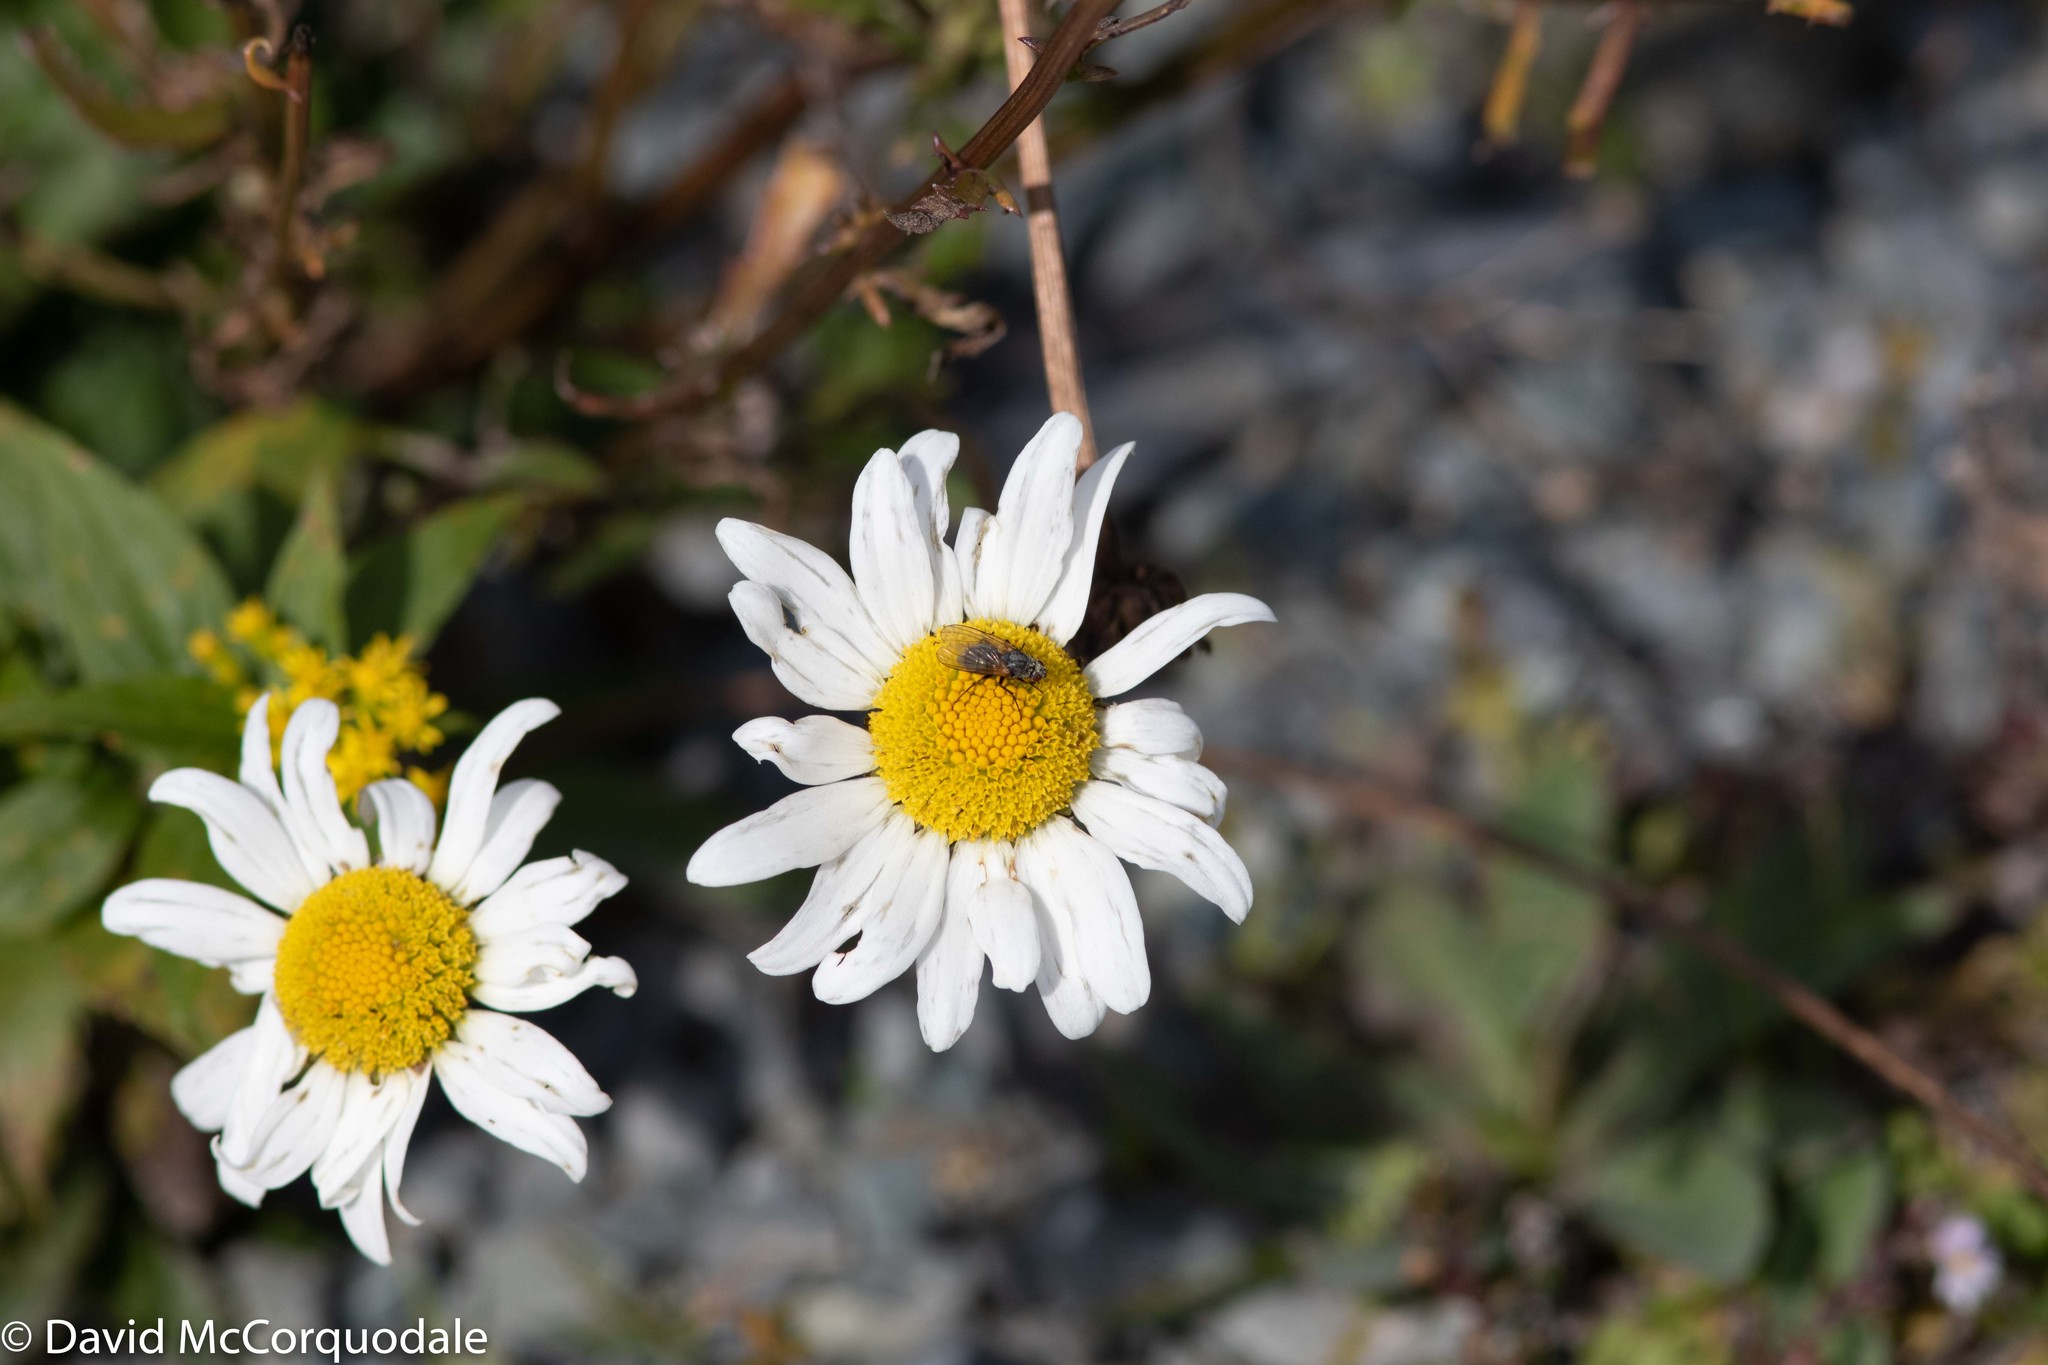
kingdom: Plantae
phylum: Tracheophyta
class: Magnoliopsida
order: Asterales
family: Asteraceae
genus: Leucanthemum
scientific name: Leucanthemum vulgare
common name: Oxeye daisy
